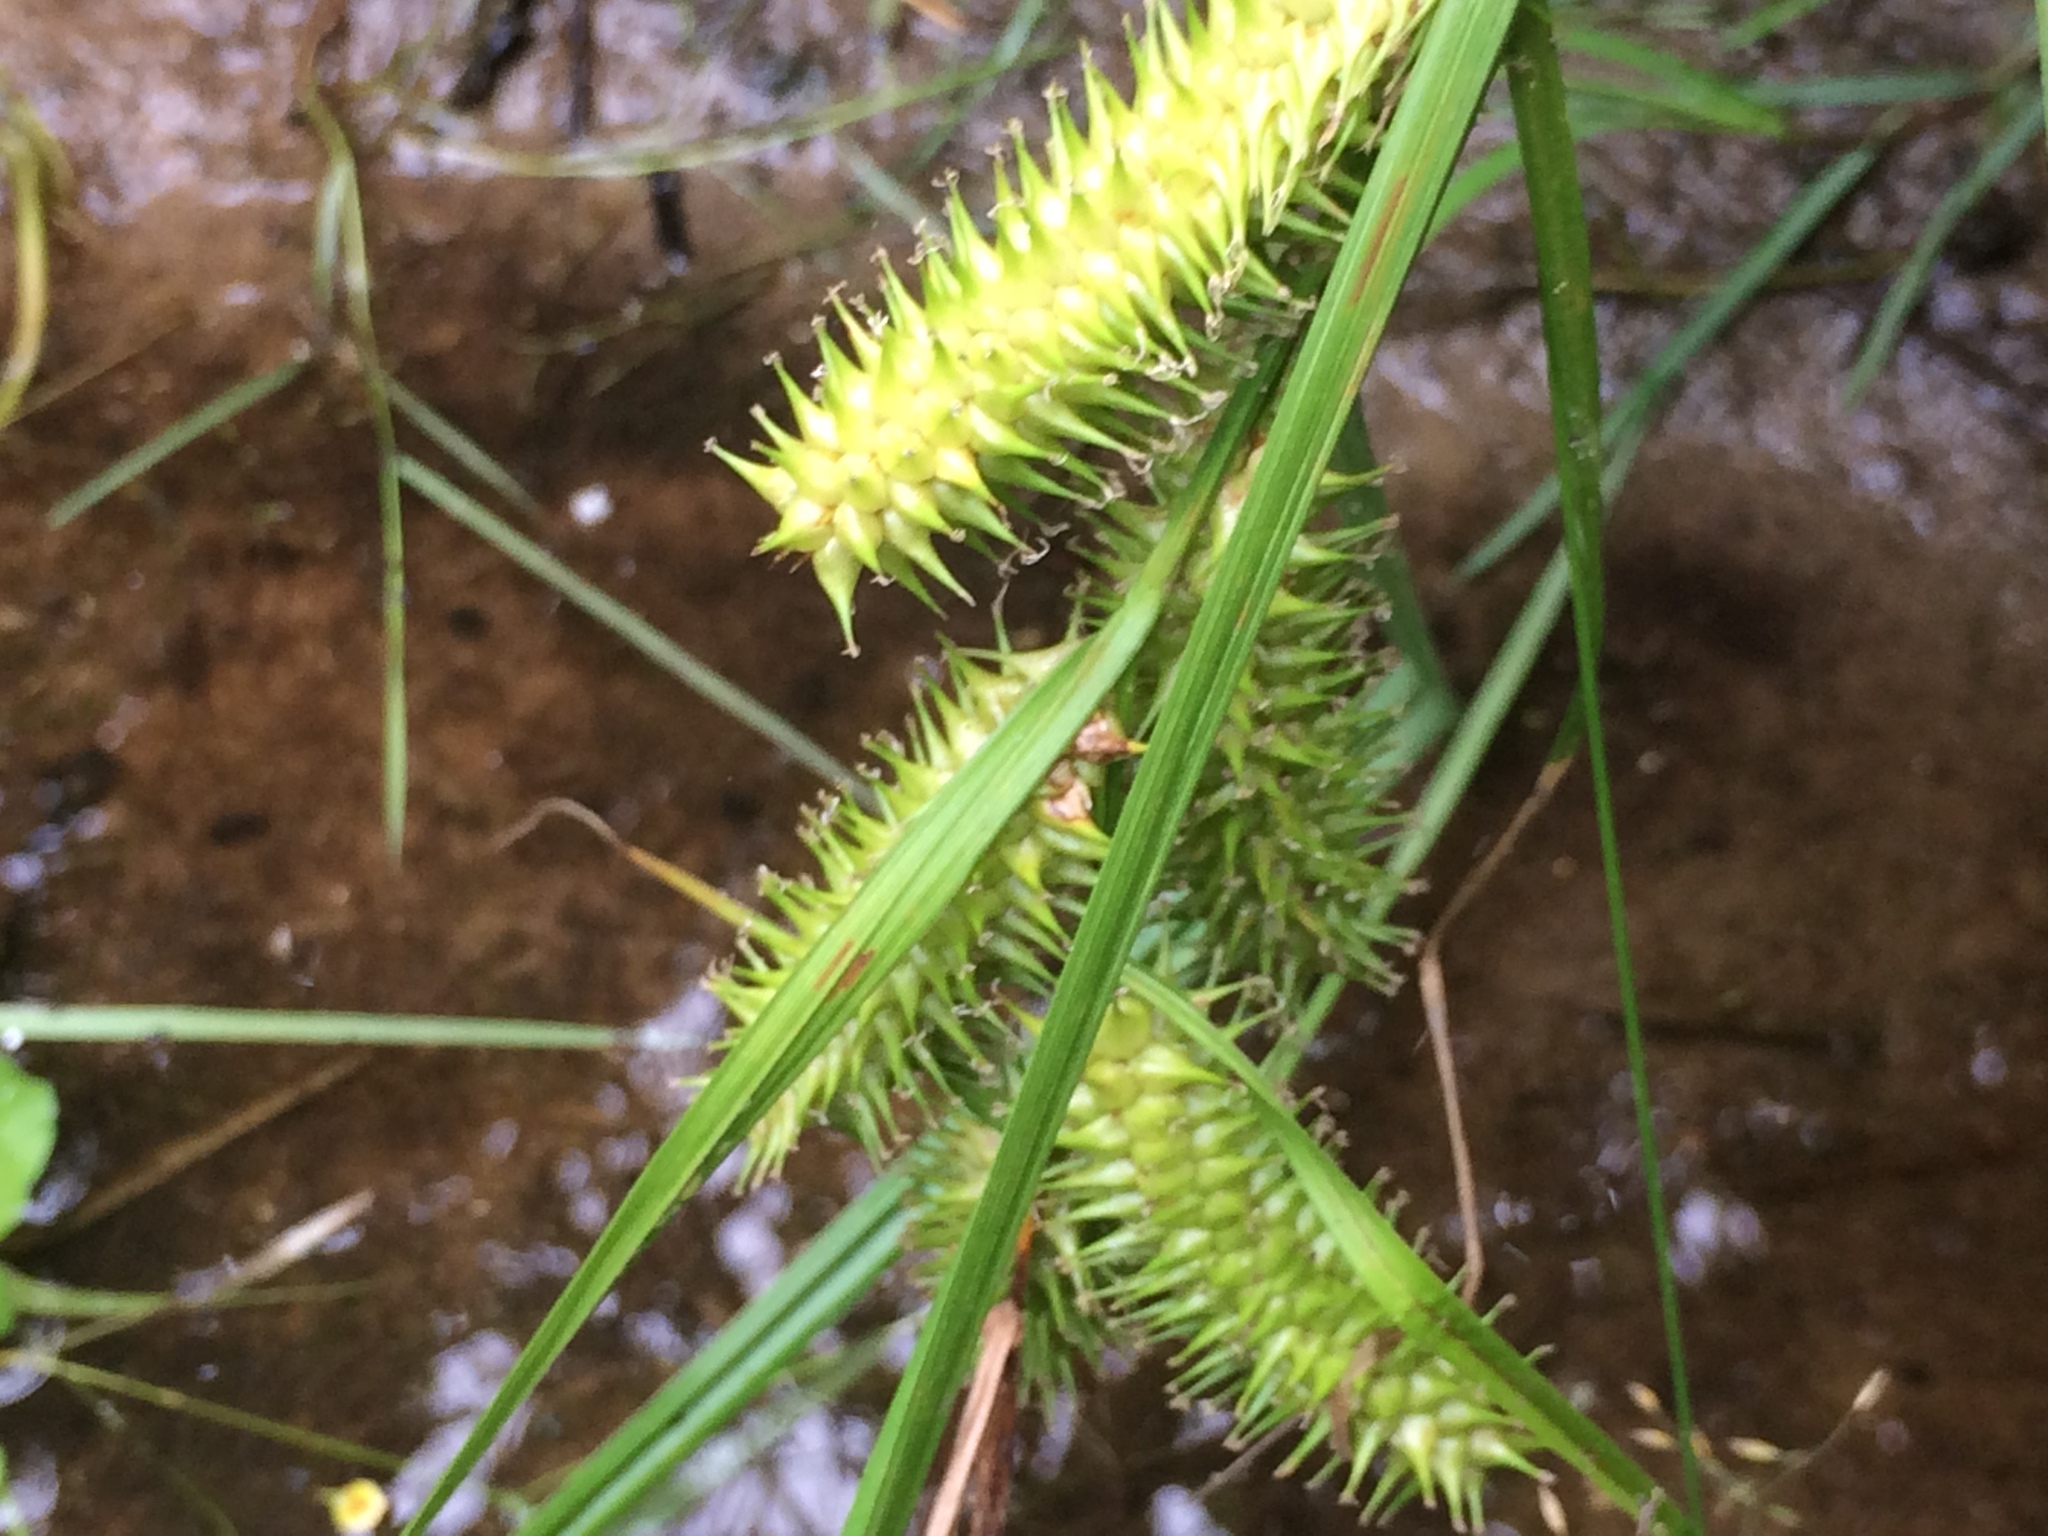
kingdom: Plantae
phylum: Tracheophyta
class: Liliopsida
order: Poales
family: Cyperaceae
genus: Carex
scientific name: Carex retrorsa
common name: Knot-sheath sedge
